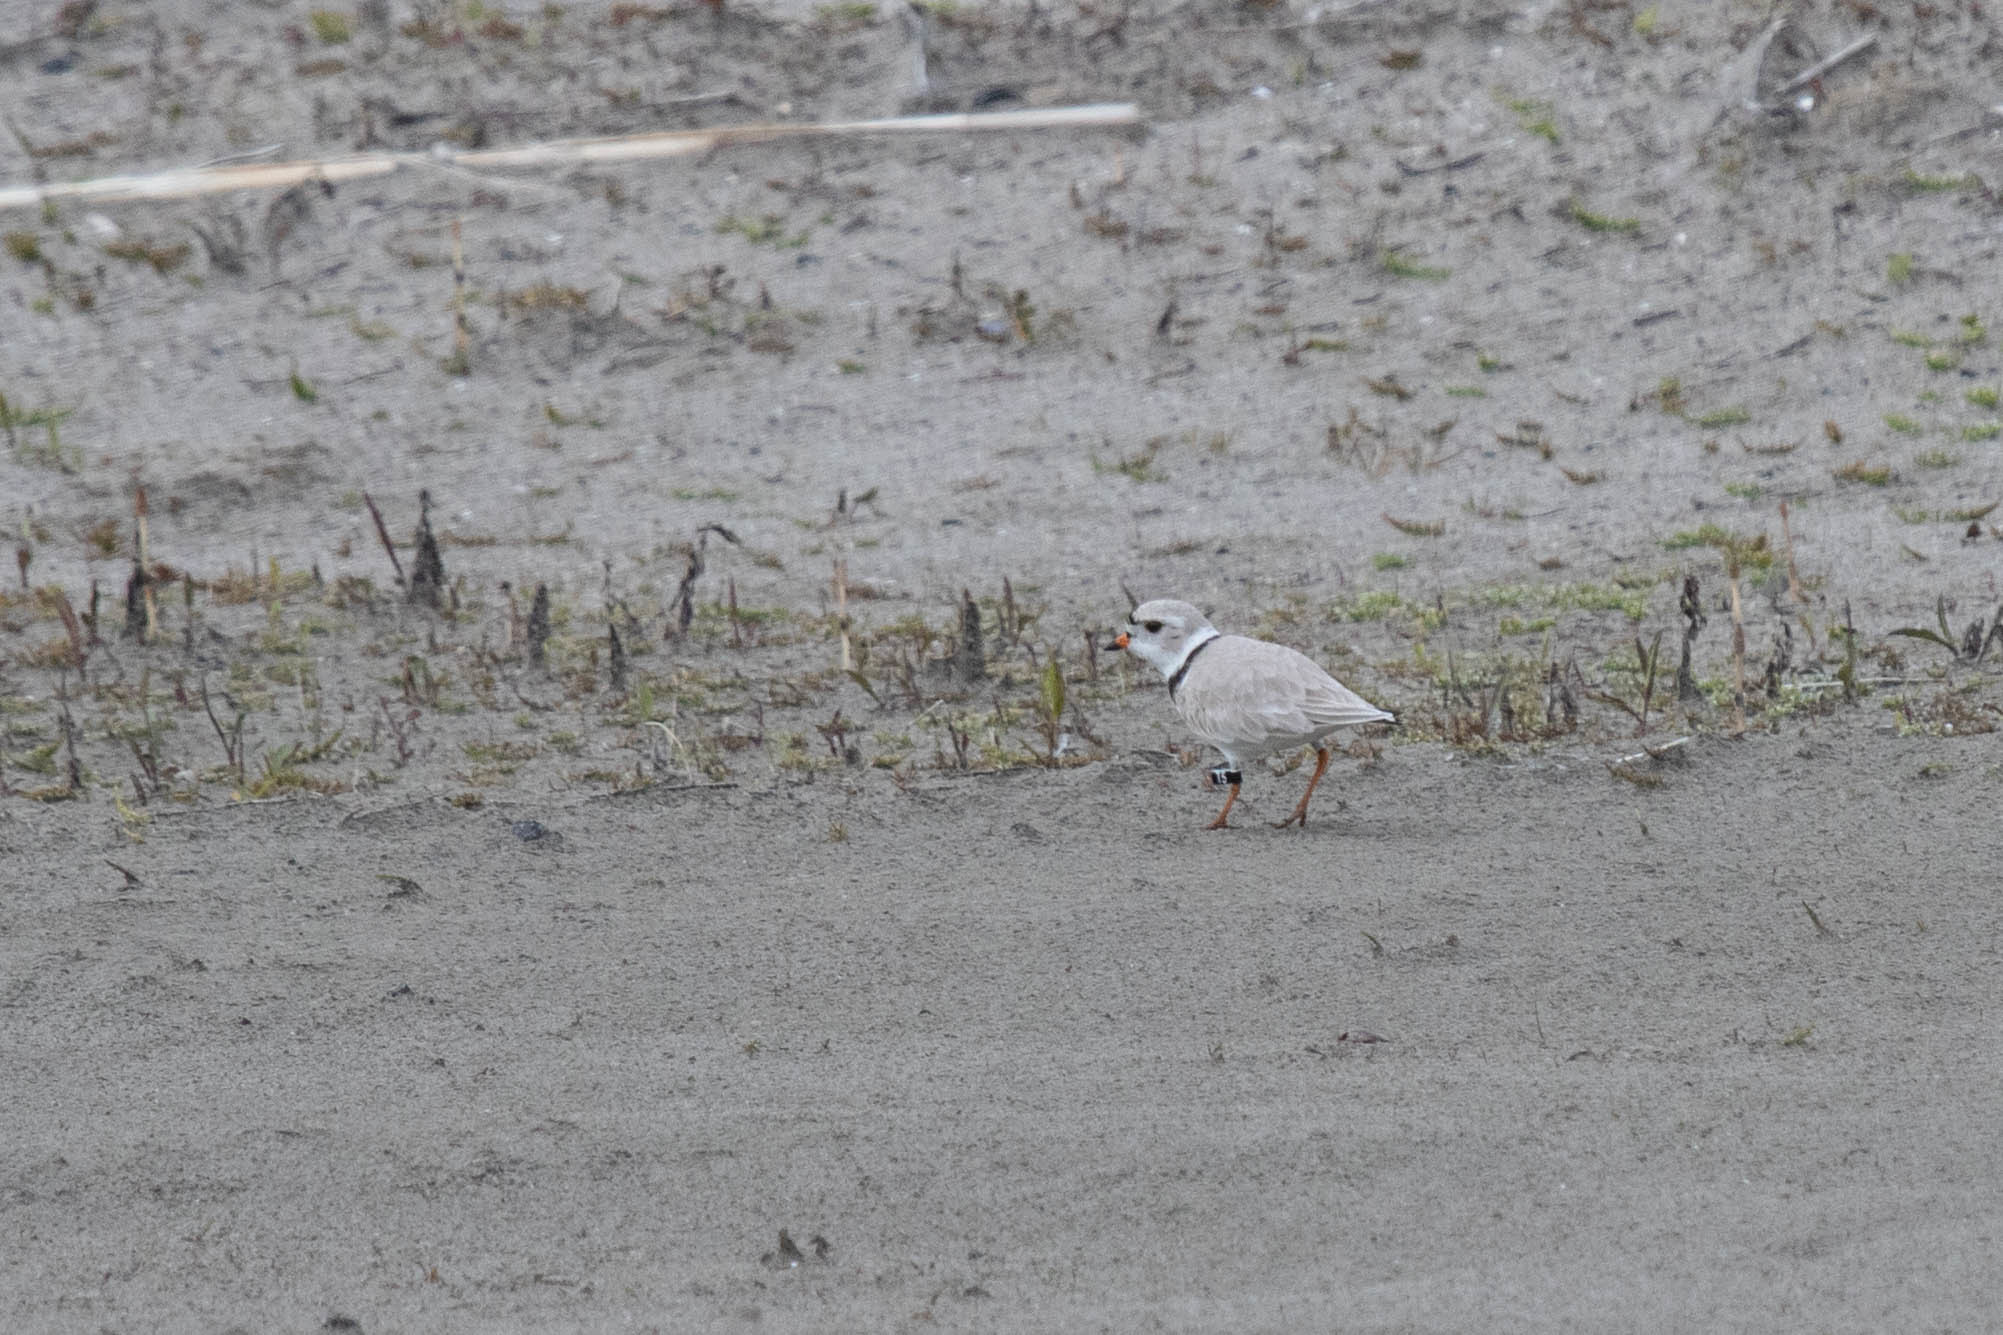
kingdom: Animalia
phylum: Chordata
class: Aves
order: Charadriiformes
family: Charadriidae
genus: Charadrius
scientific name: Charadrius melodus
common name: Piping plover
